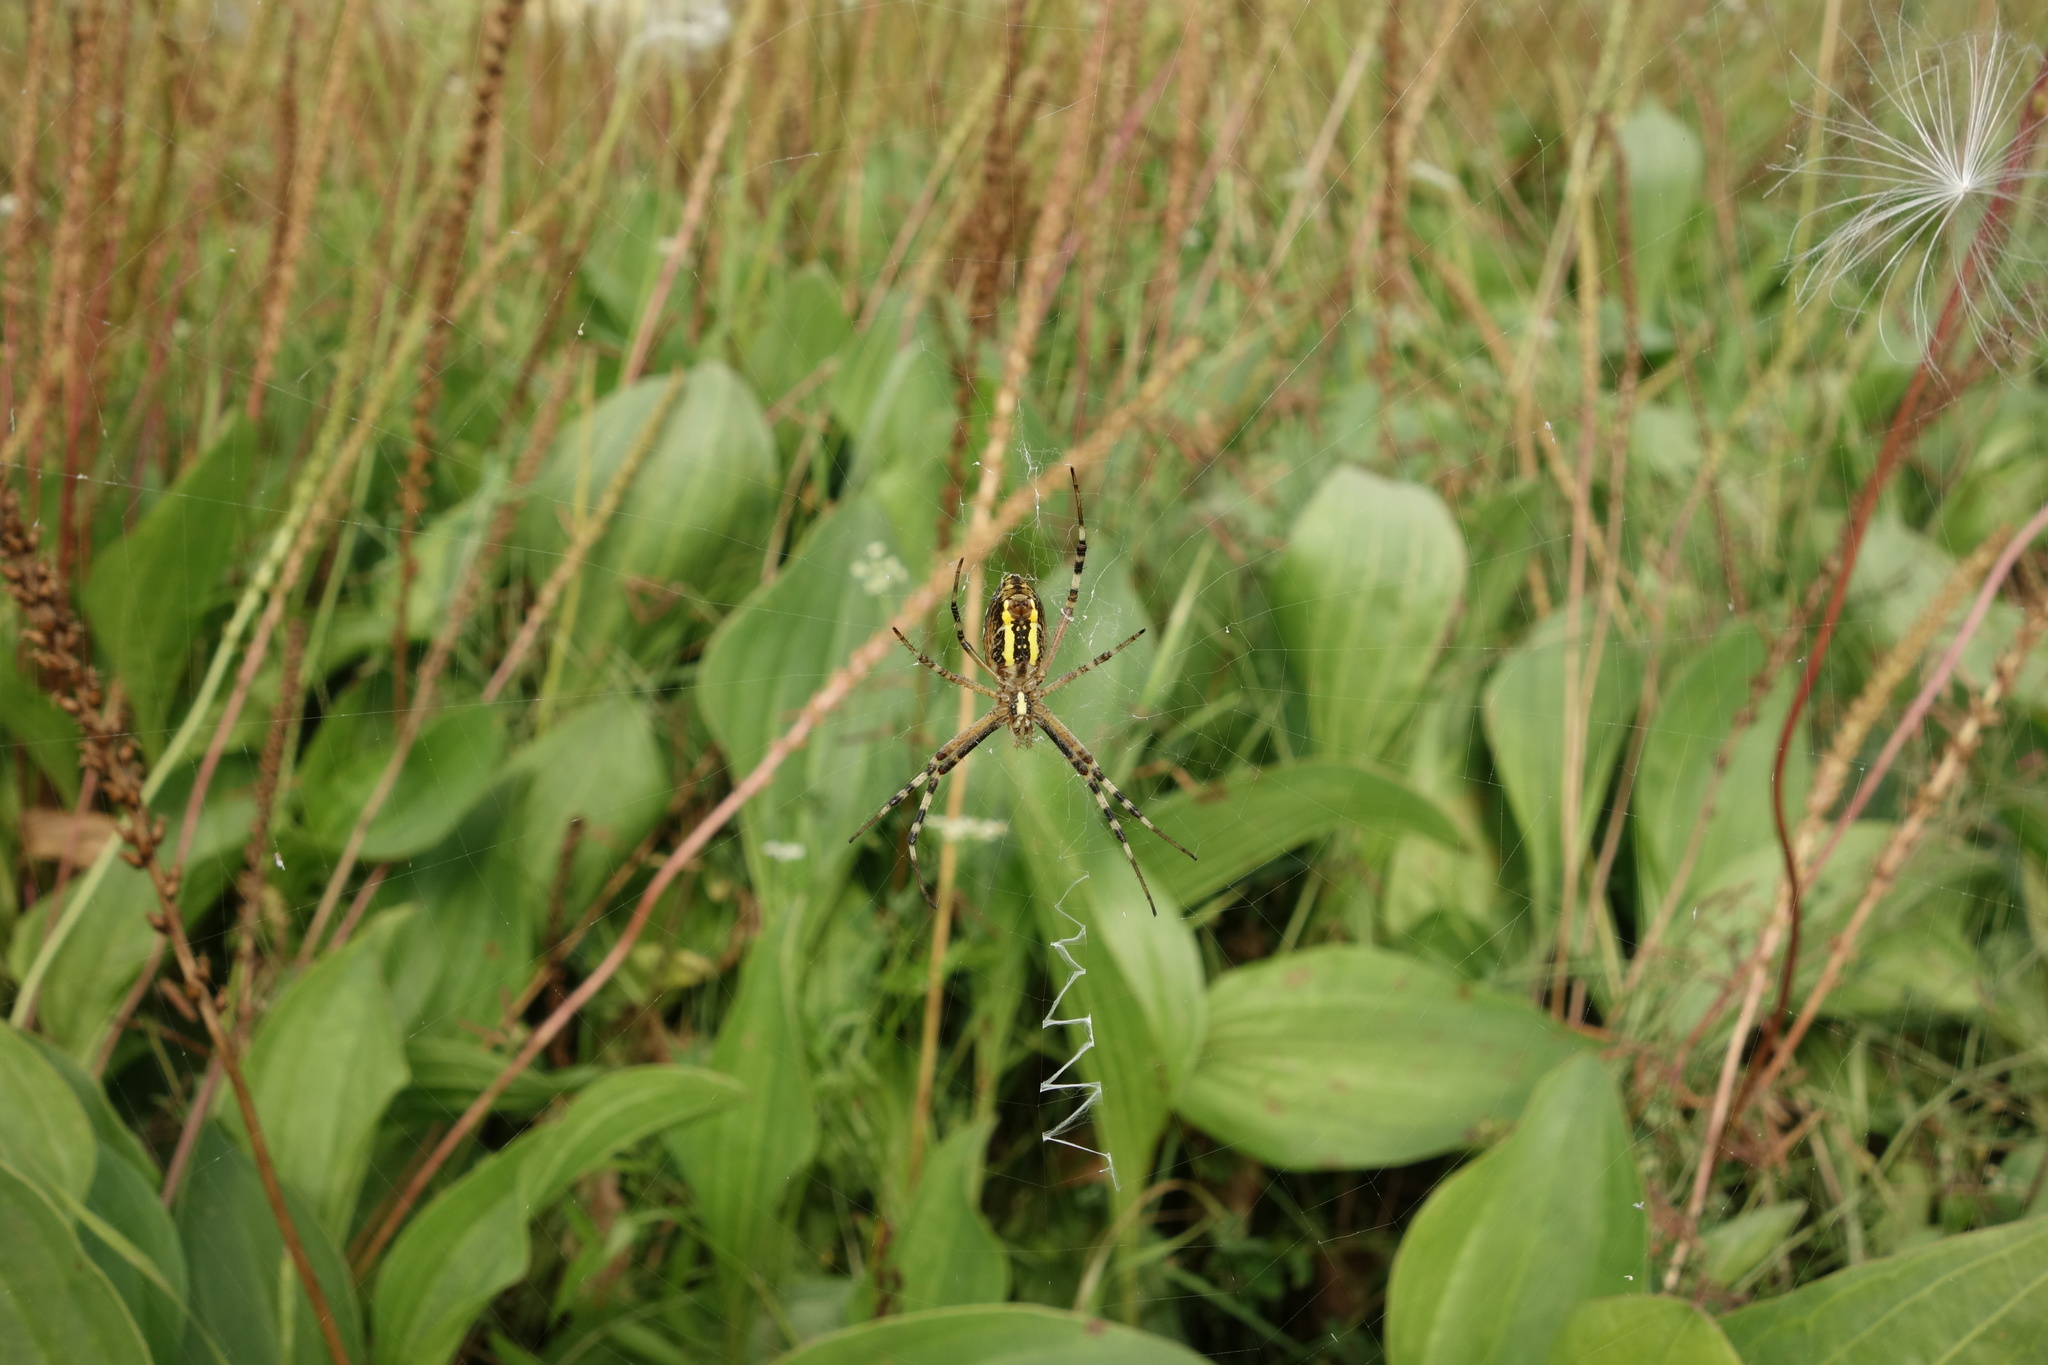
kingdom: Animalia
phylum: Arthropoda
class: Arachnida
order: Araneae
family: Araneidae
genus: Argiope
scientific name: Argiope bruennichi
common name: Wasp spider
